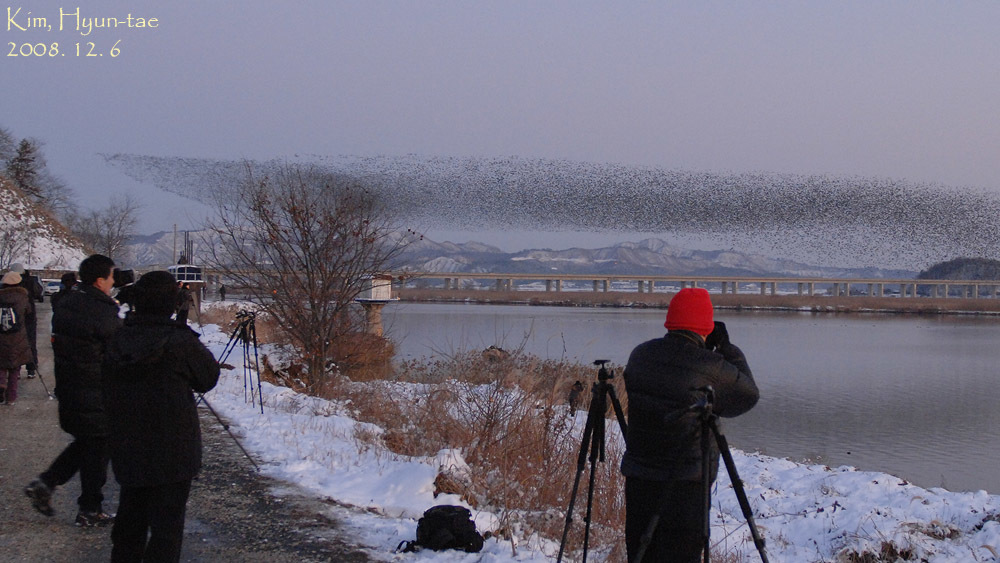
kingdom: Animalia
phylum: Chordata
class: Aves
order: Anseriformes
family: Anatidae
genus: Sibirionetta
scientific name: Sibirionetta formosa
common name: Baikal teal
